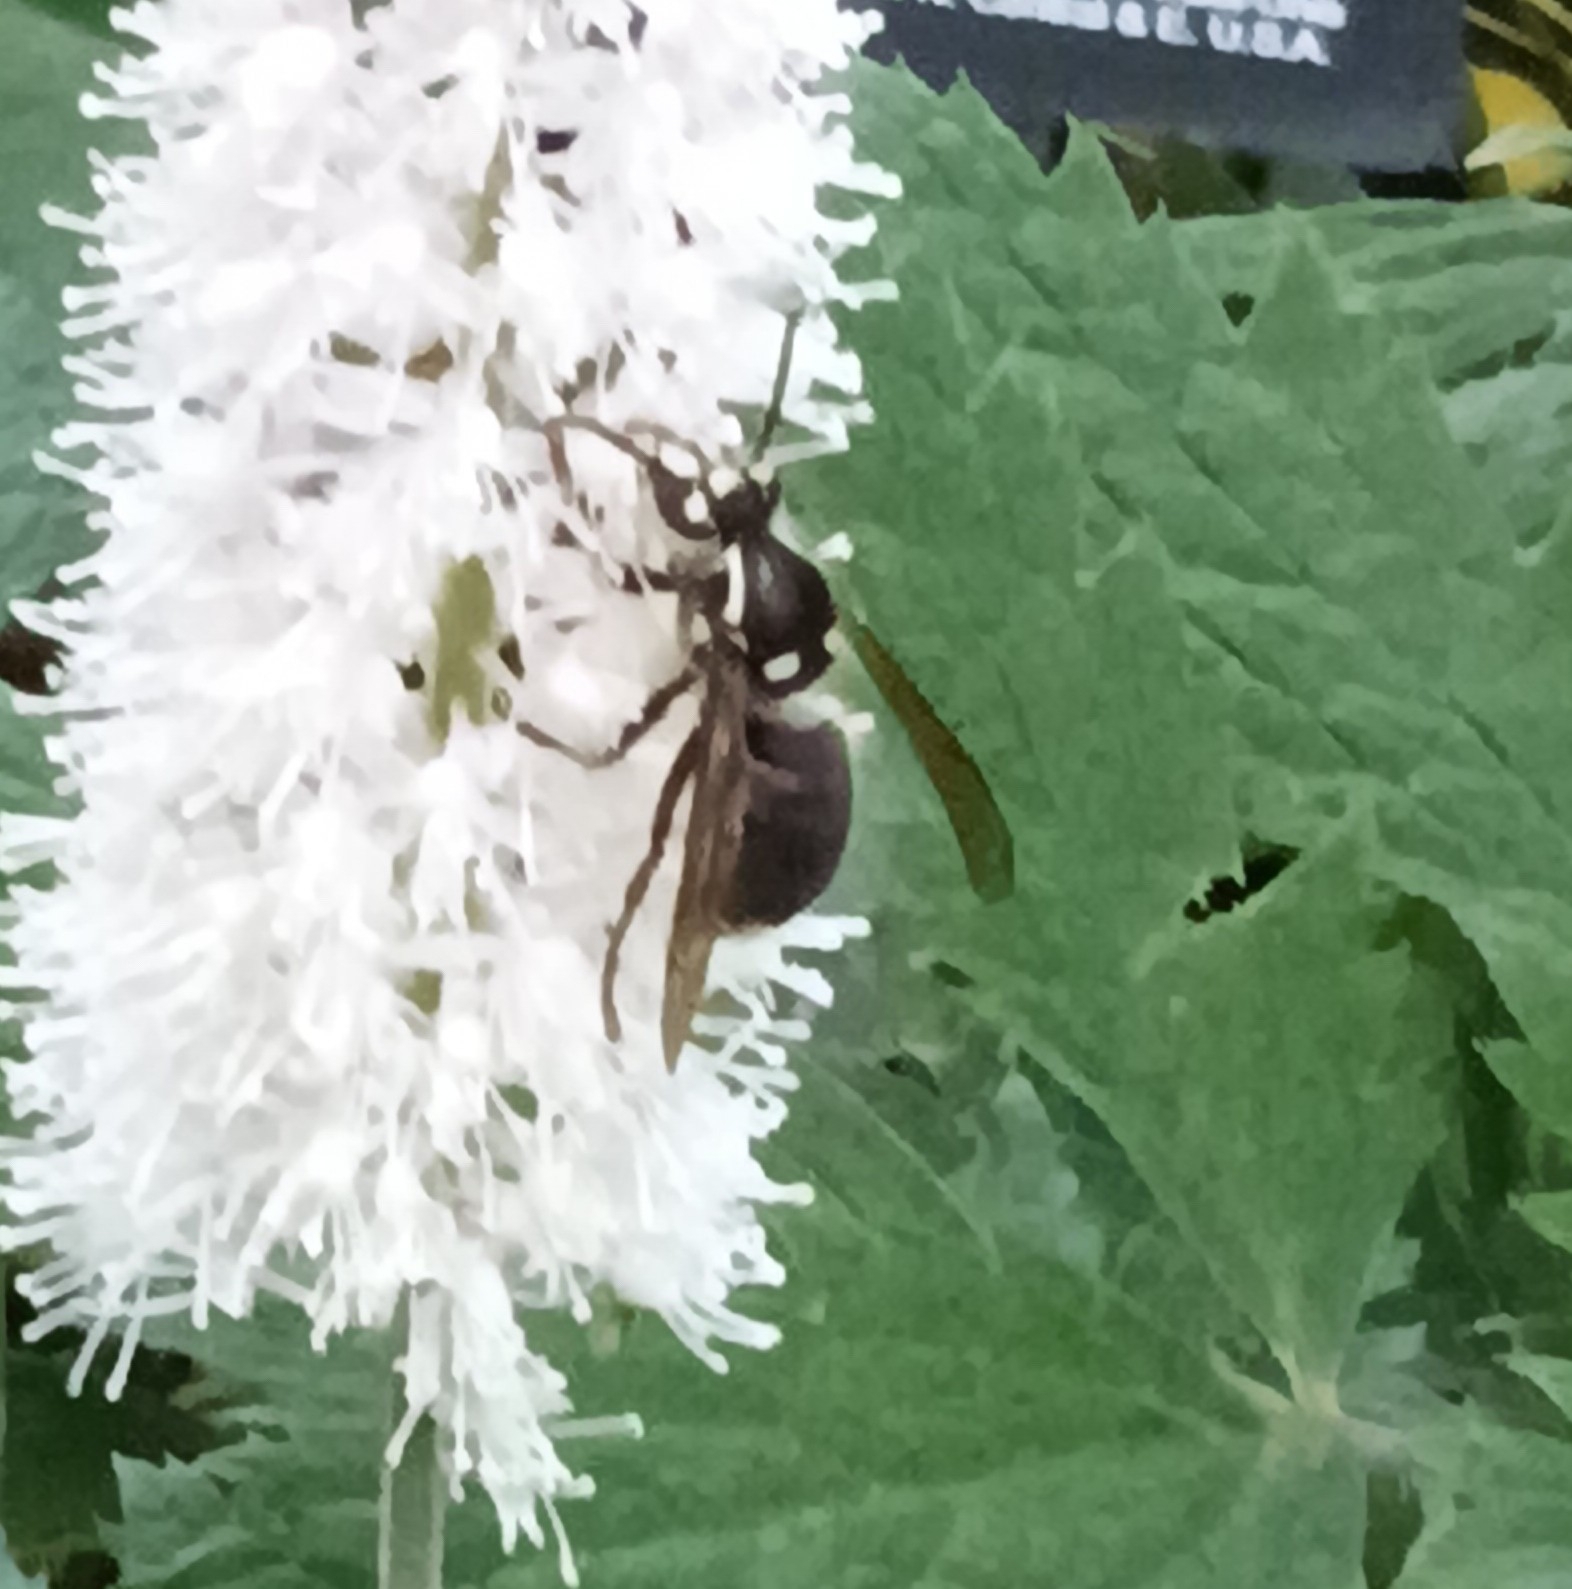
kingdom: Animalia
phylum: Arthropoda
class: Insecta
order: Hymenoptera
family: Vespidae
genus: Dolichovespula
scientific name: Dolichovespula maculata
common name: Bald-faced hornet
